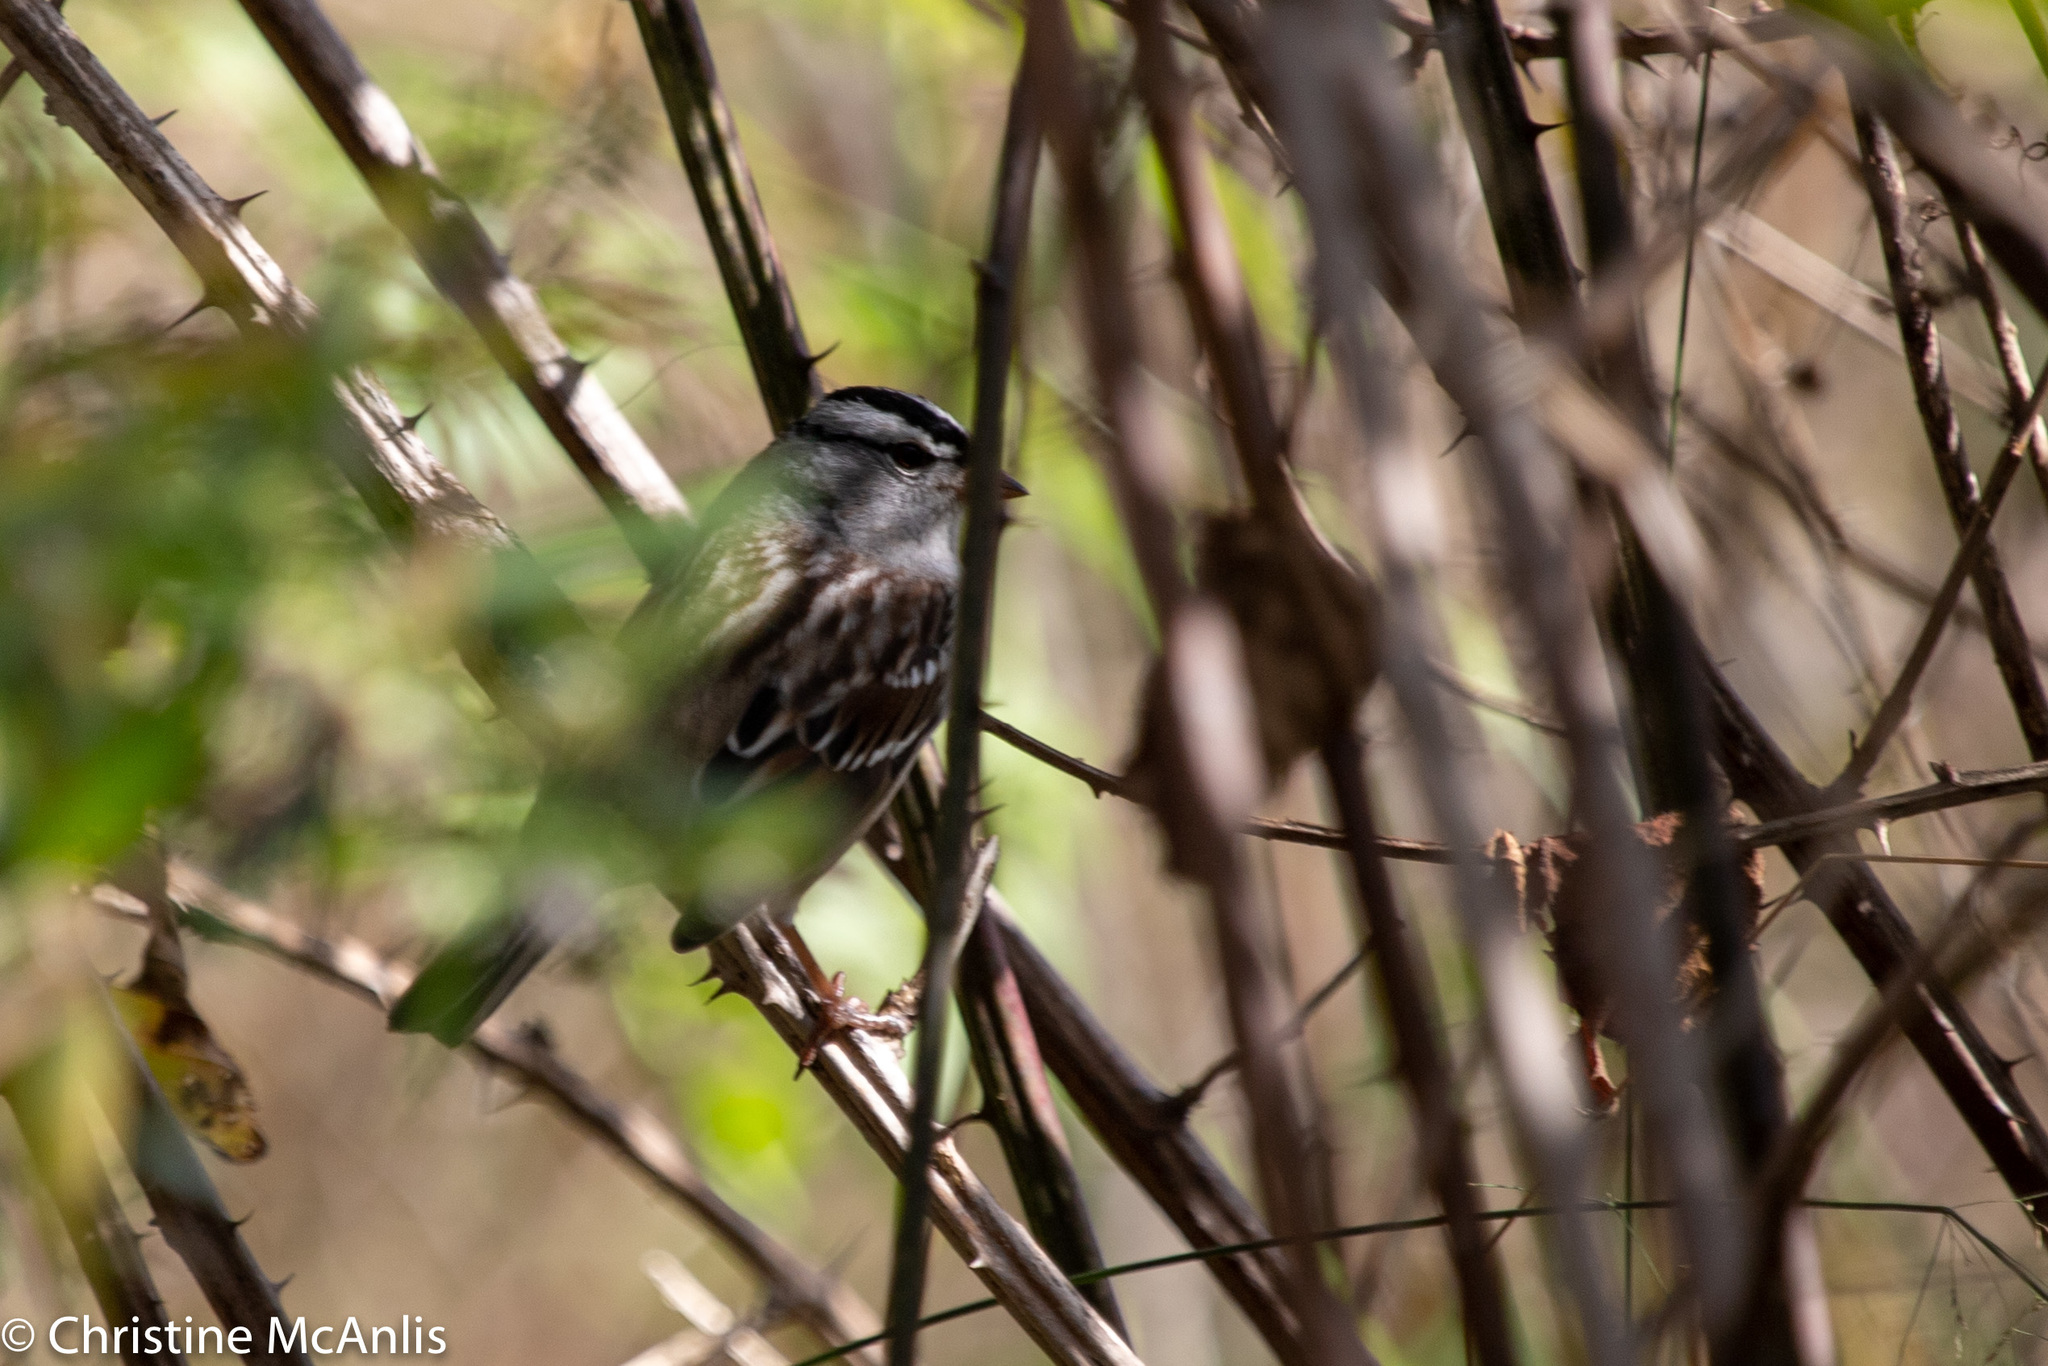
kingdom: Animalia
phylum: Chordata
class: Aves
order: Passeriformes
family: Passerellidae
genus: Zonotrichia
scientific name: Zonotrichia leucophrys
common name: White-crowned sparrow
